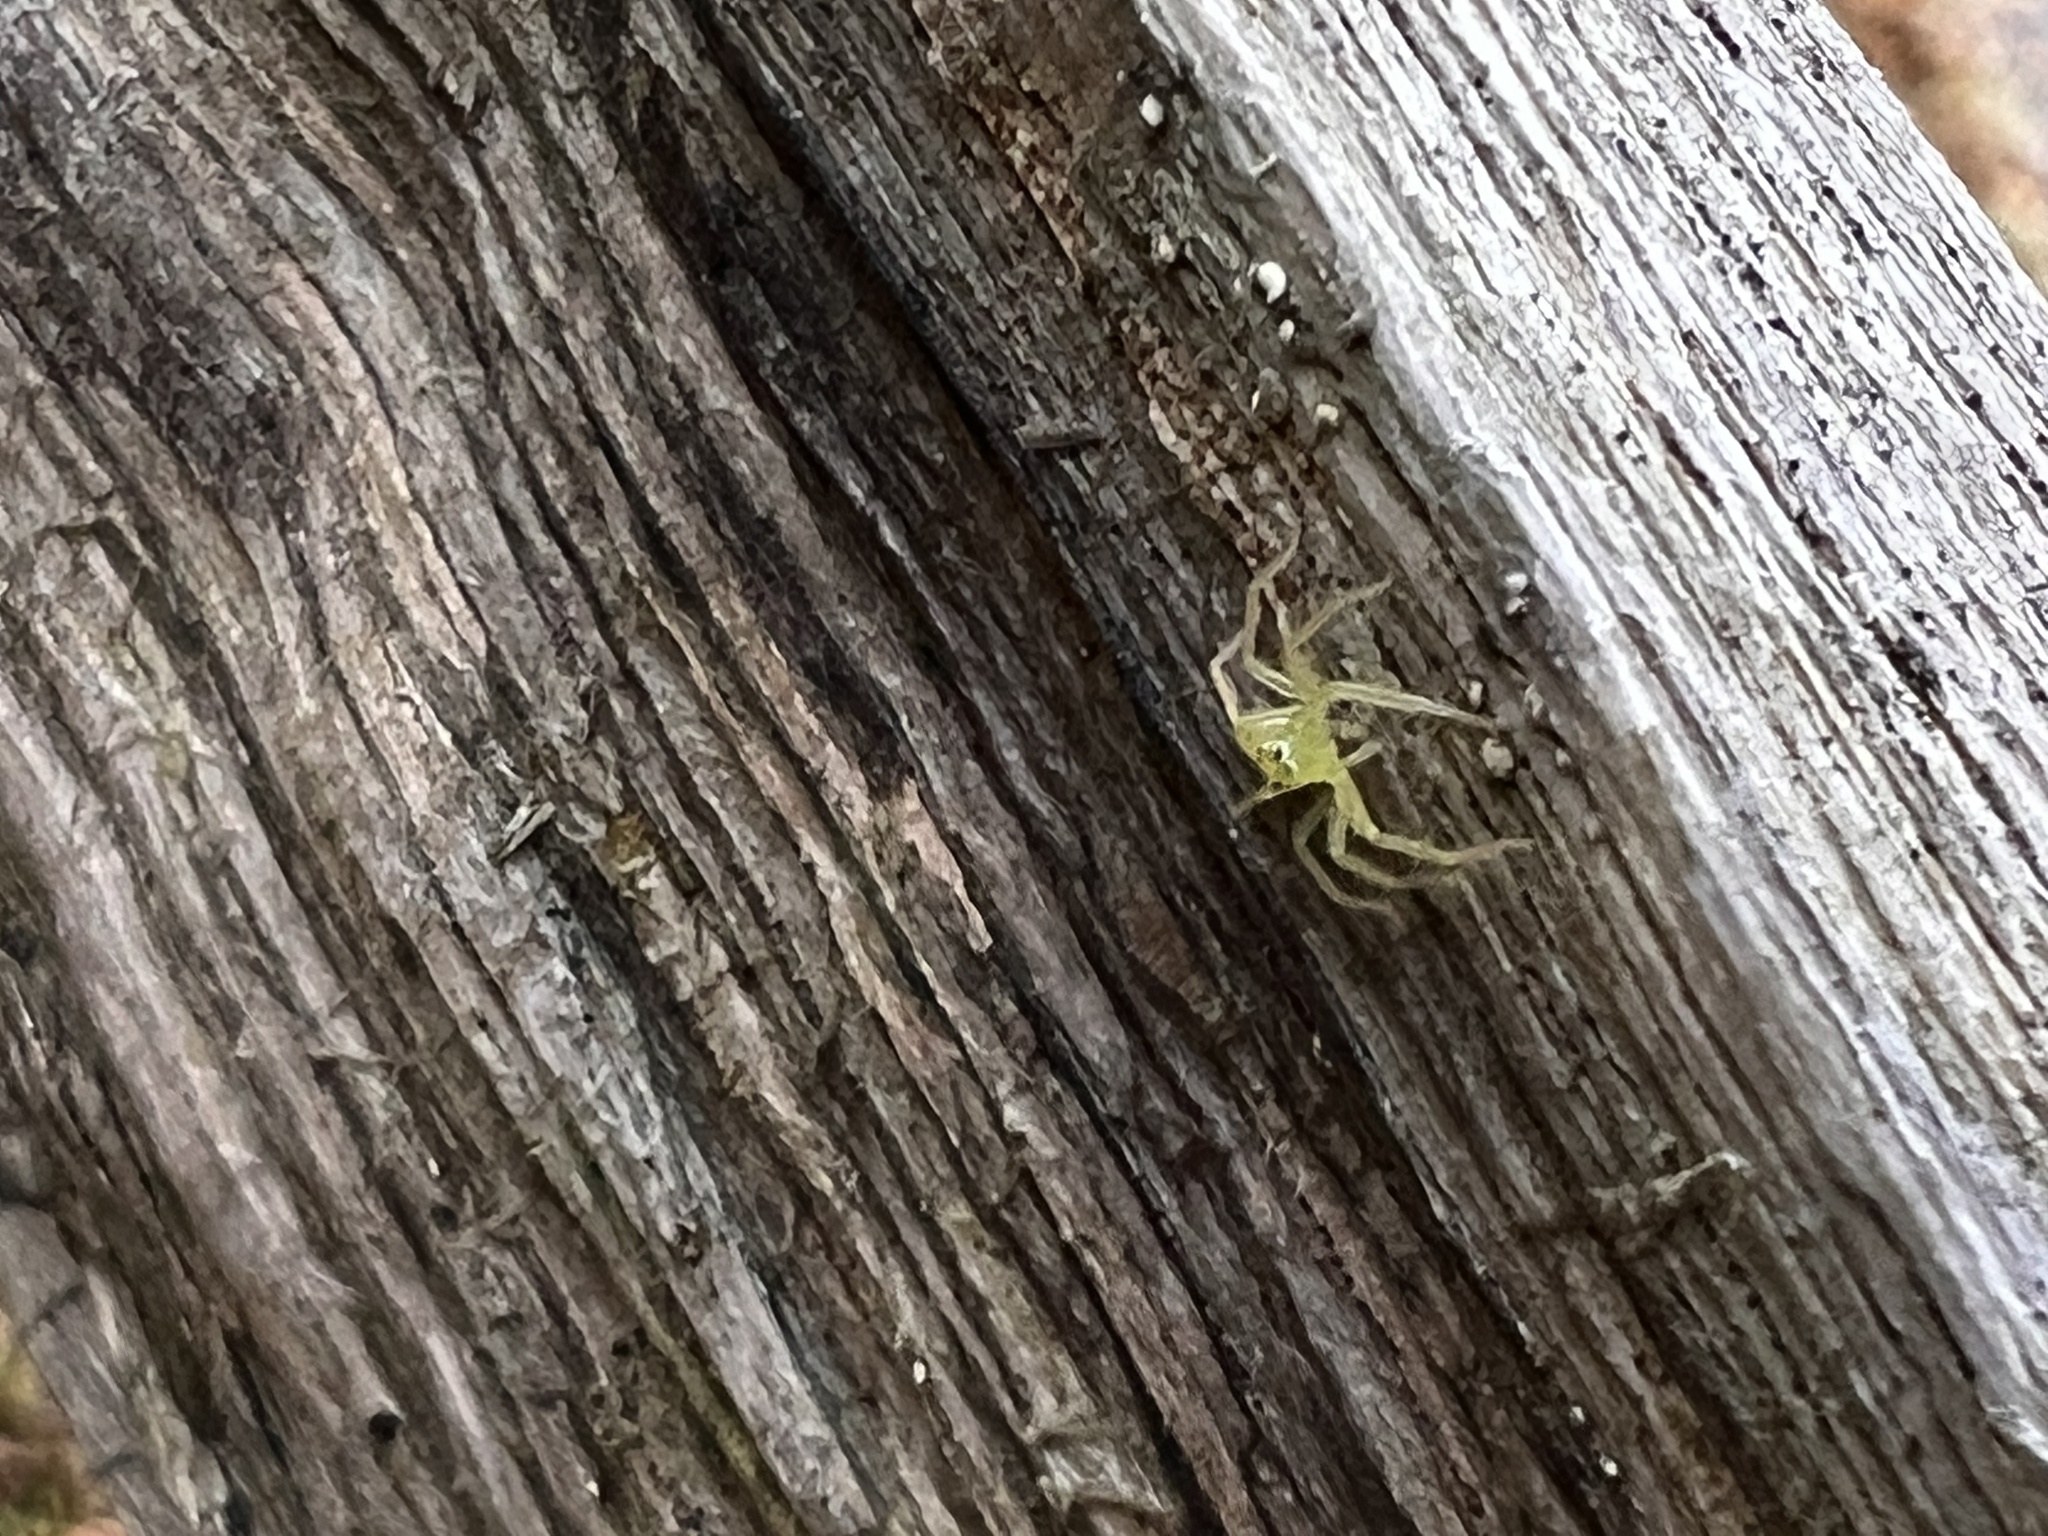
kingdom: Animalia
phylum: Arthropoda
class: Arachnida
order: Araneae
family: Salticidae
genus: Lyssomanes
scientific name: Lyssomanes viridis
